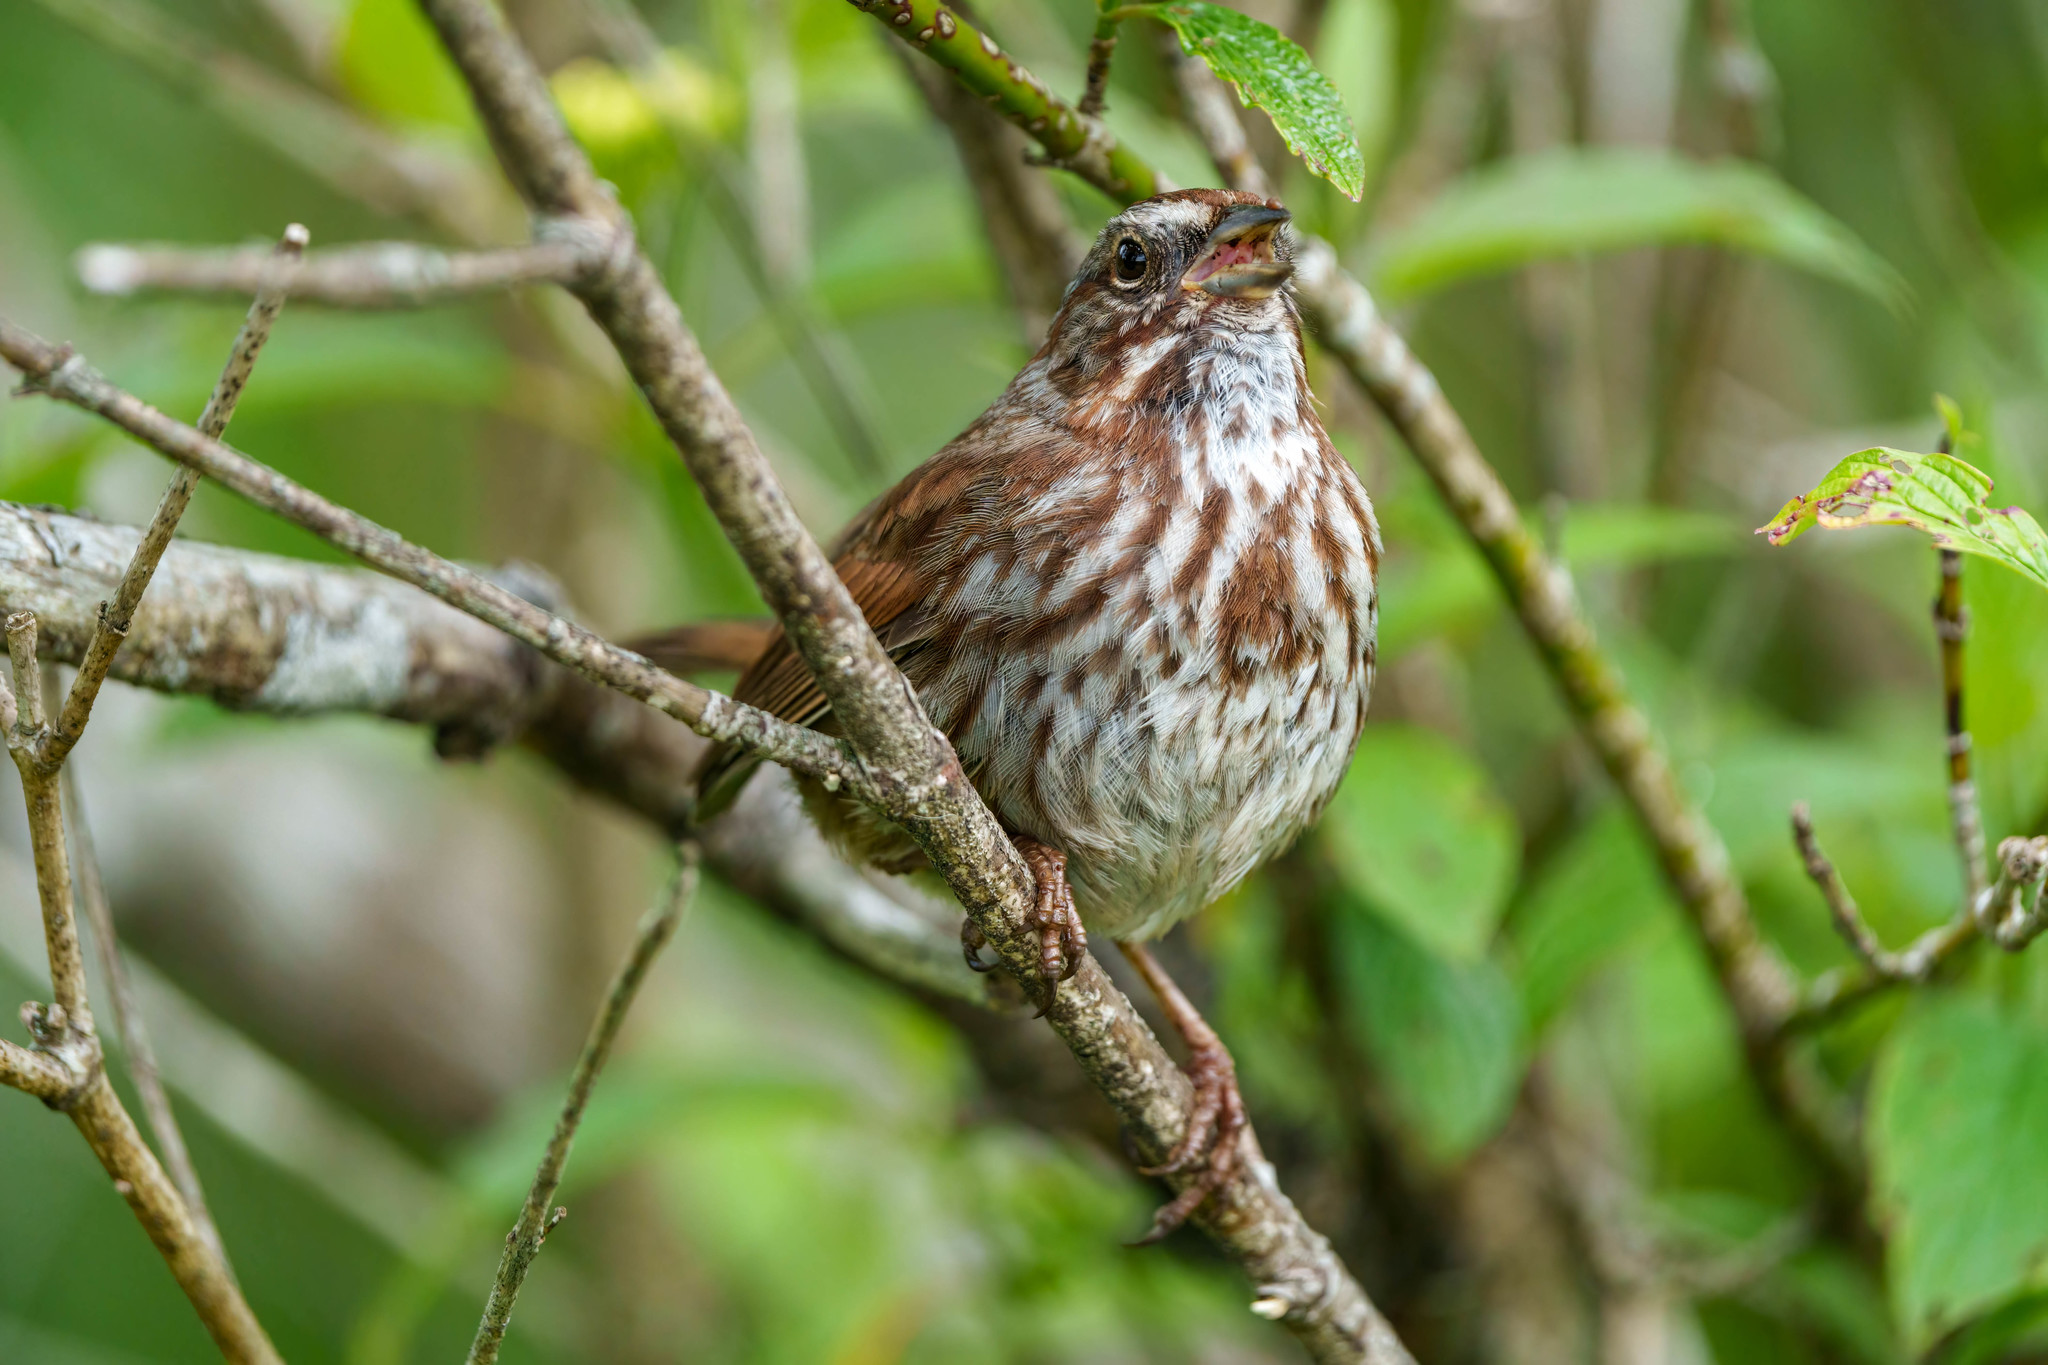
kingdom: Animalia
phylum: Chordata
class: Aves
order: Passeriformes
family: Passerellidae
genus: Melospiza
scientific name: Melospiza melodia
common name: Song sparrow
